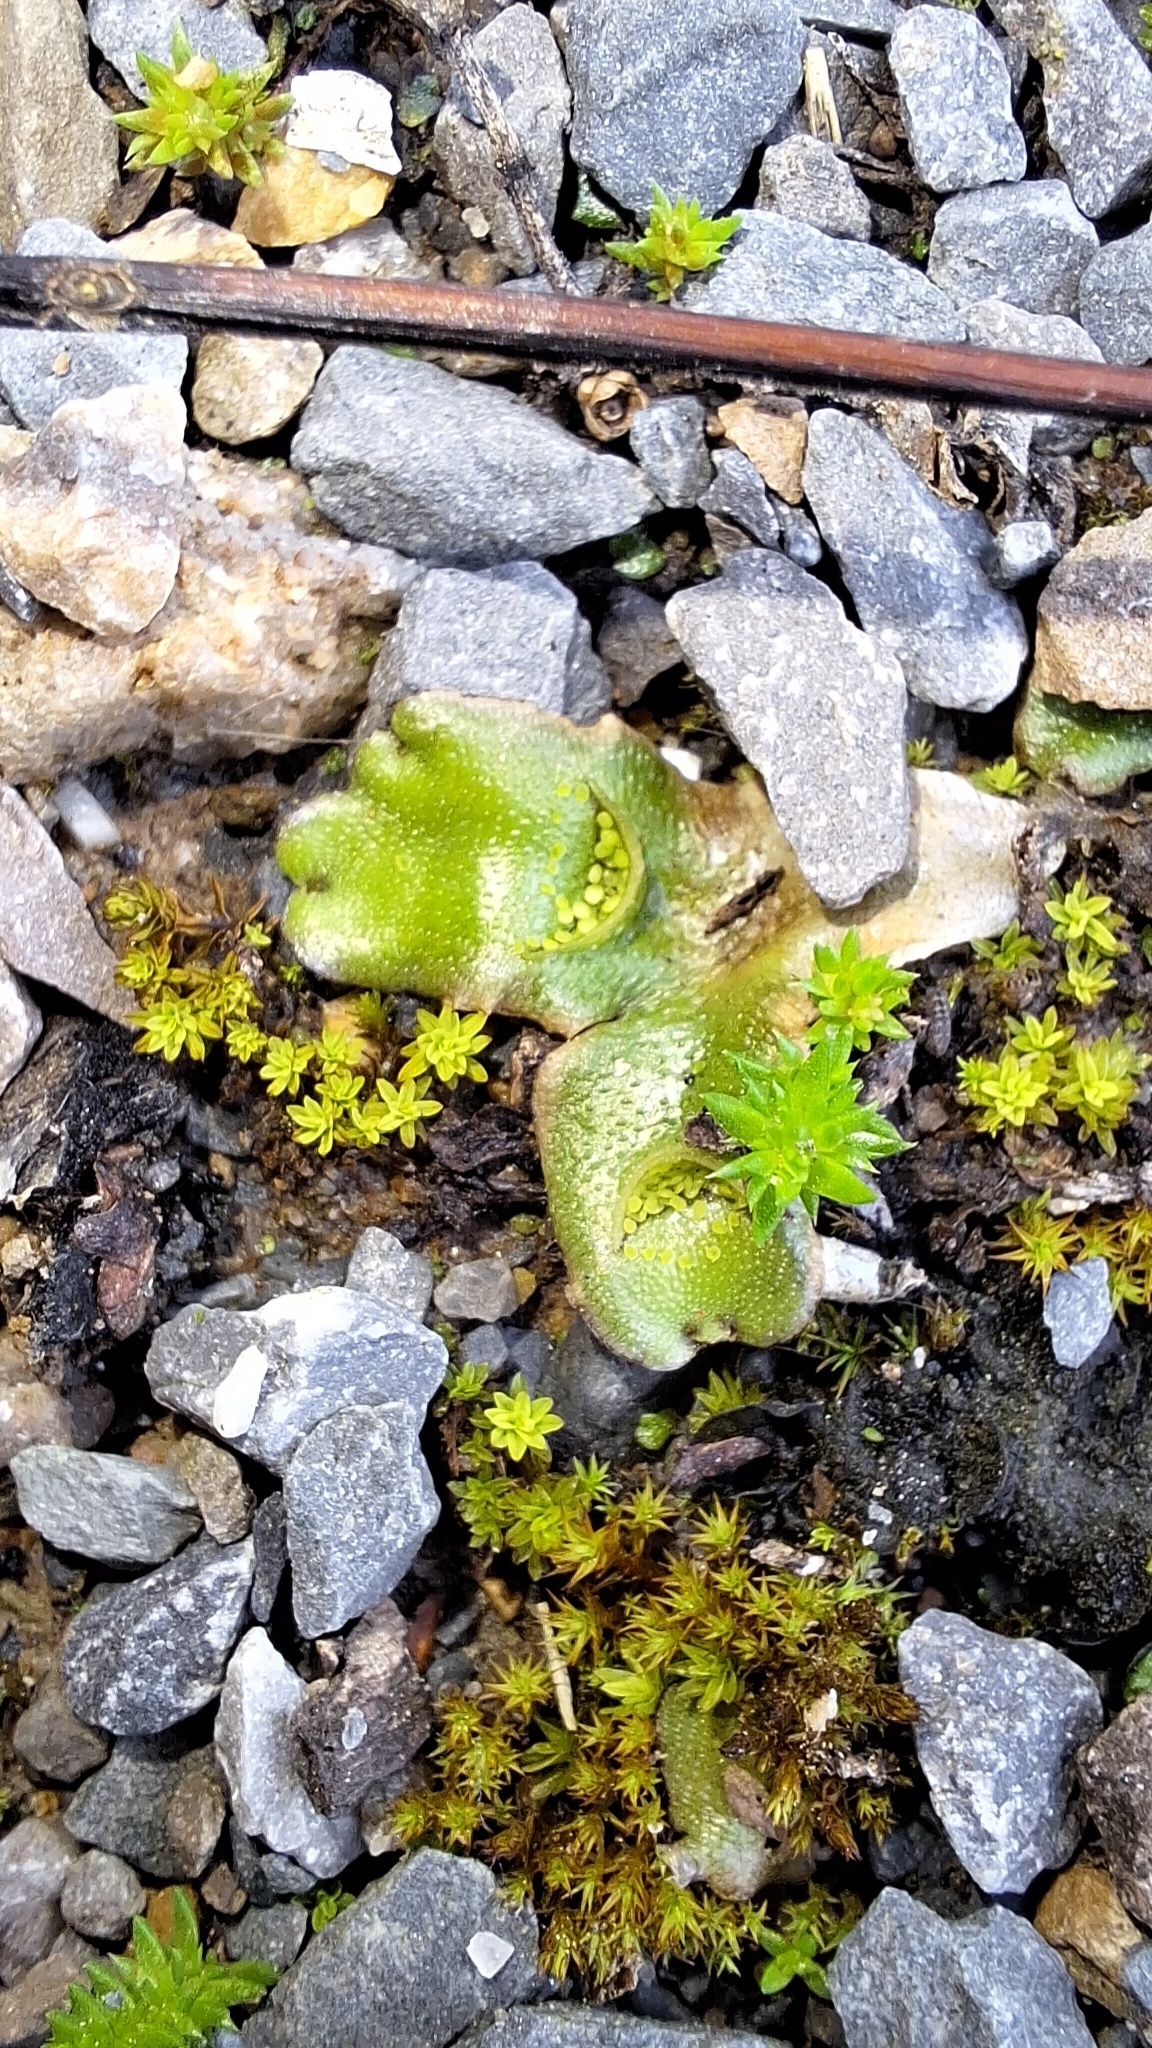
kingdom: Plantae
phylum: Marchantiophyta
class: Marchantiopsida
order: Lunulariales
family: Lunulariaceae
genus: Lunularia
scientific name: Lunularia cruciata
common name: Crescent-cup liverwort
